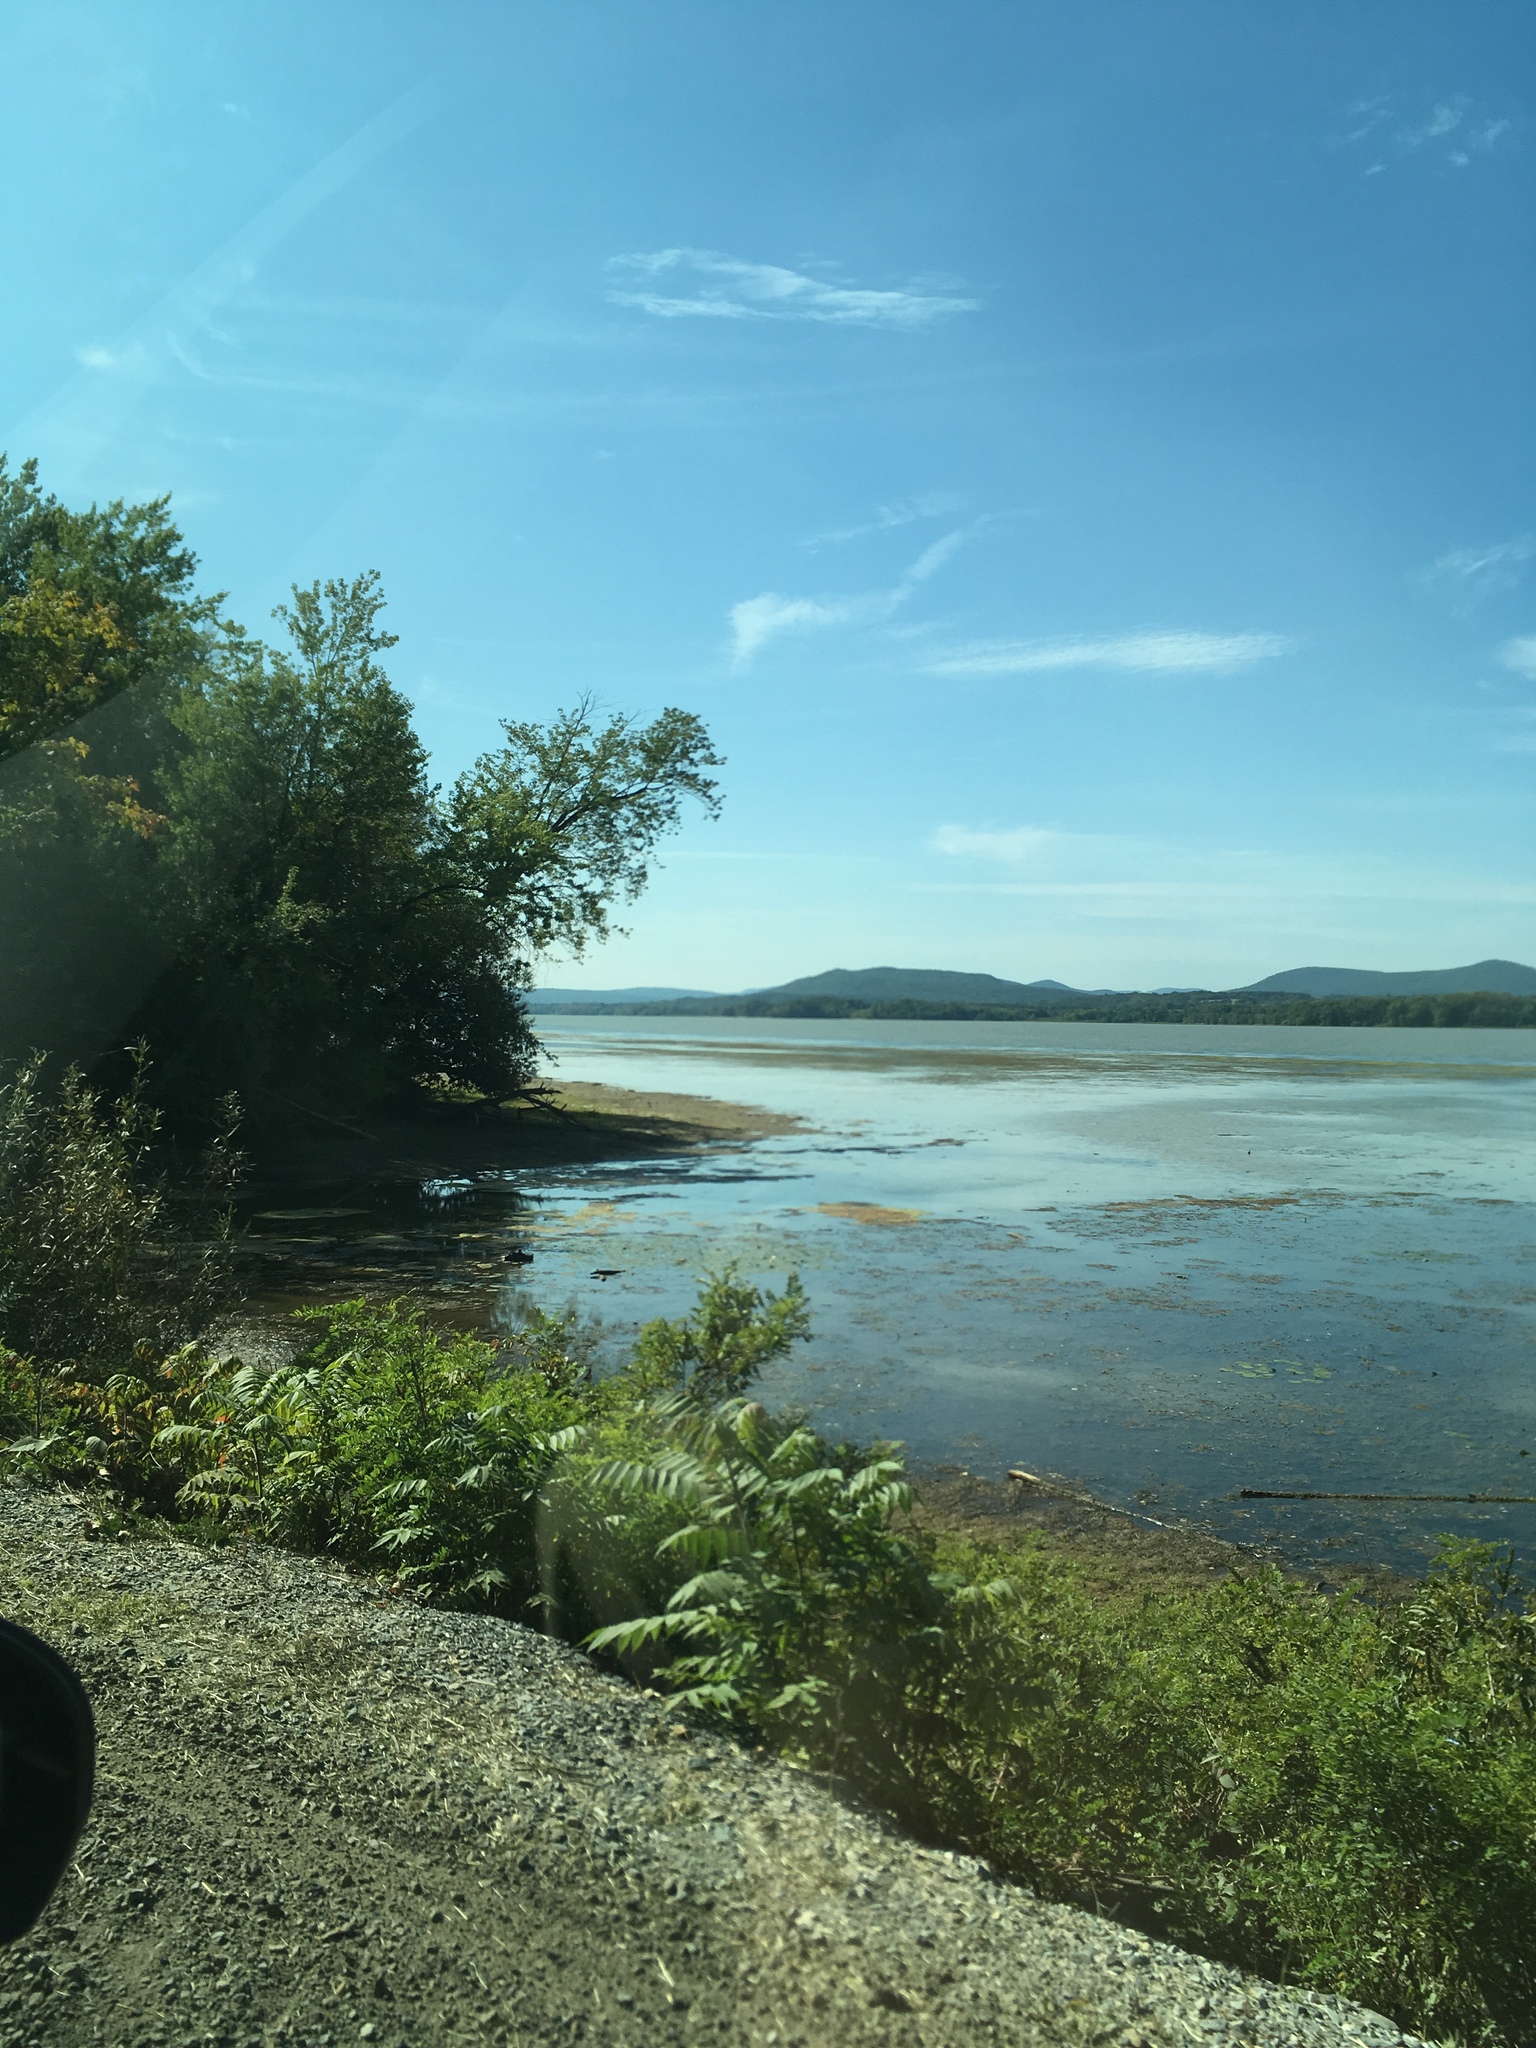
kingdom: Plantae
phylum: Tracheophyta
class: Magnoliopsida
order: Sapindales
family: Anacardiaceae
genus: Rhus
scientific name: Rhus typhina
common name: Staghorn sumac
